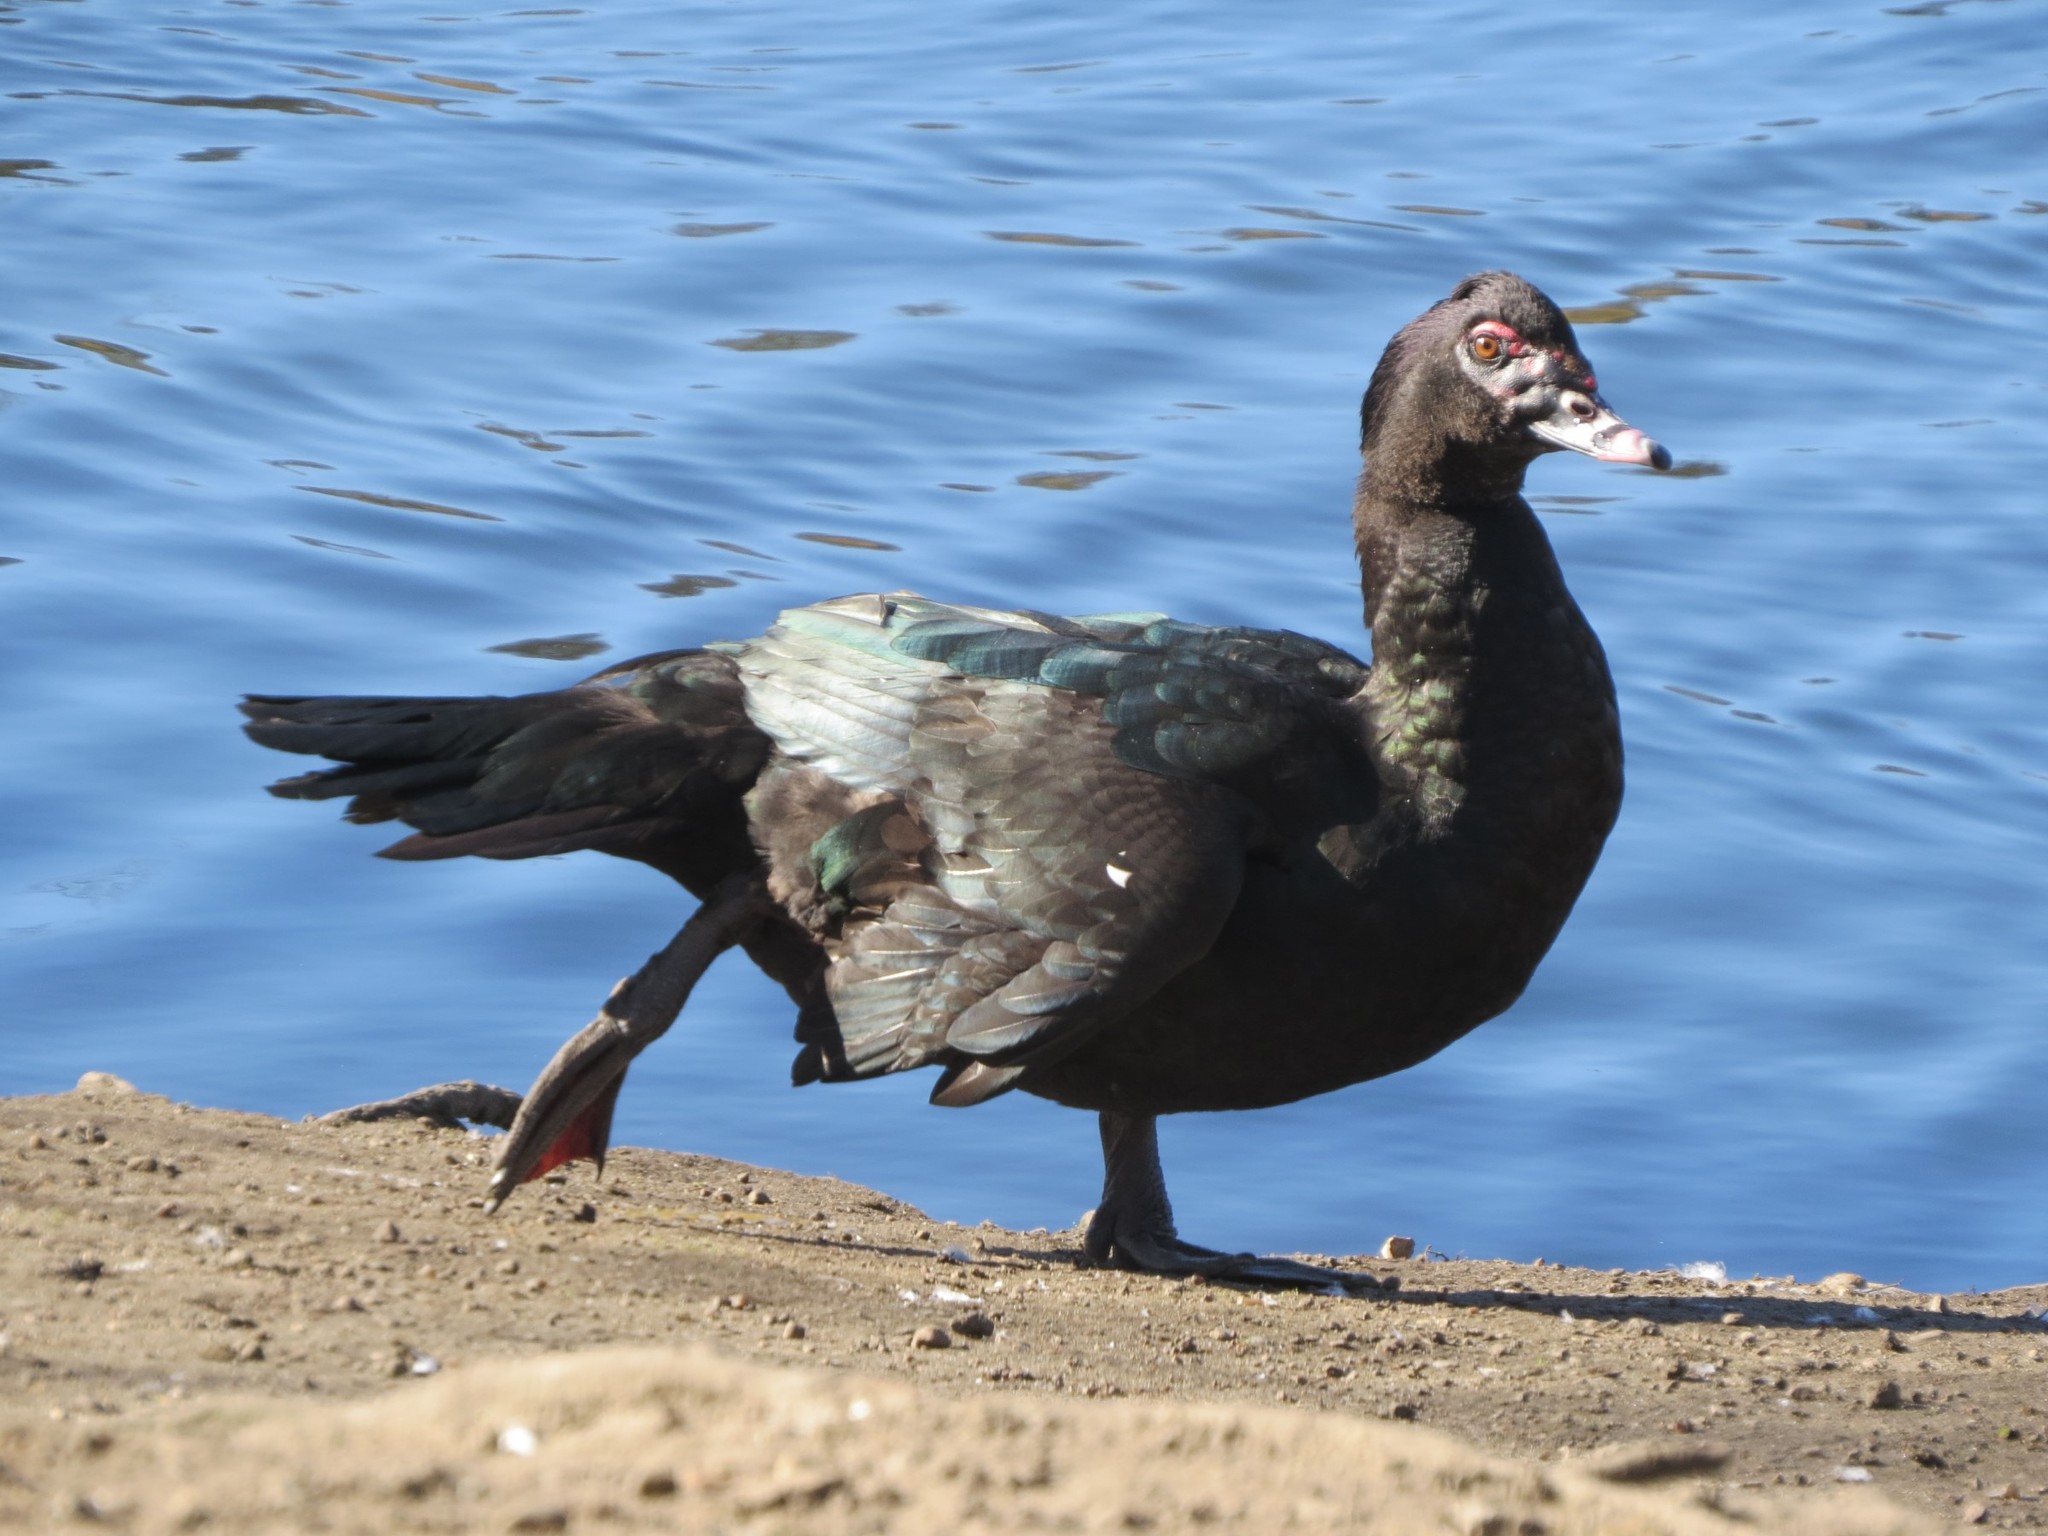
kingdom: Animalia
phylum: Chordata
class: Aves
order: Anseriformes
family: Anatidae
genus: Cairina
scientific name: Cairina moschata
